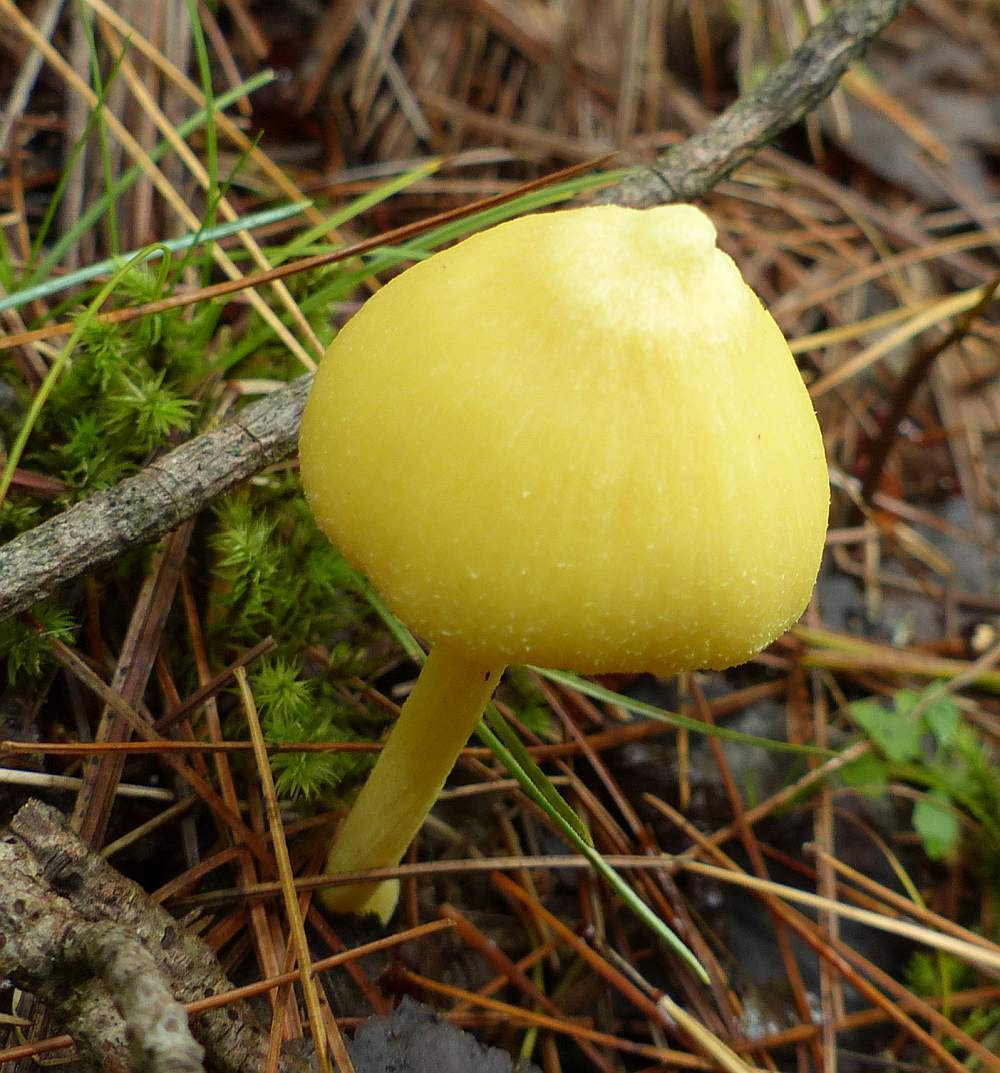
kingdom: Fungi
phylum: Basidiomycota
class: Agaricomycetes
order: Agaricales
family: Entolomataceae
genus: Entoloma
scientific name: Entoloma murrayi
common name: Yellow unicorn entoloma
